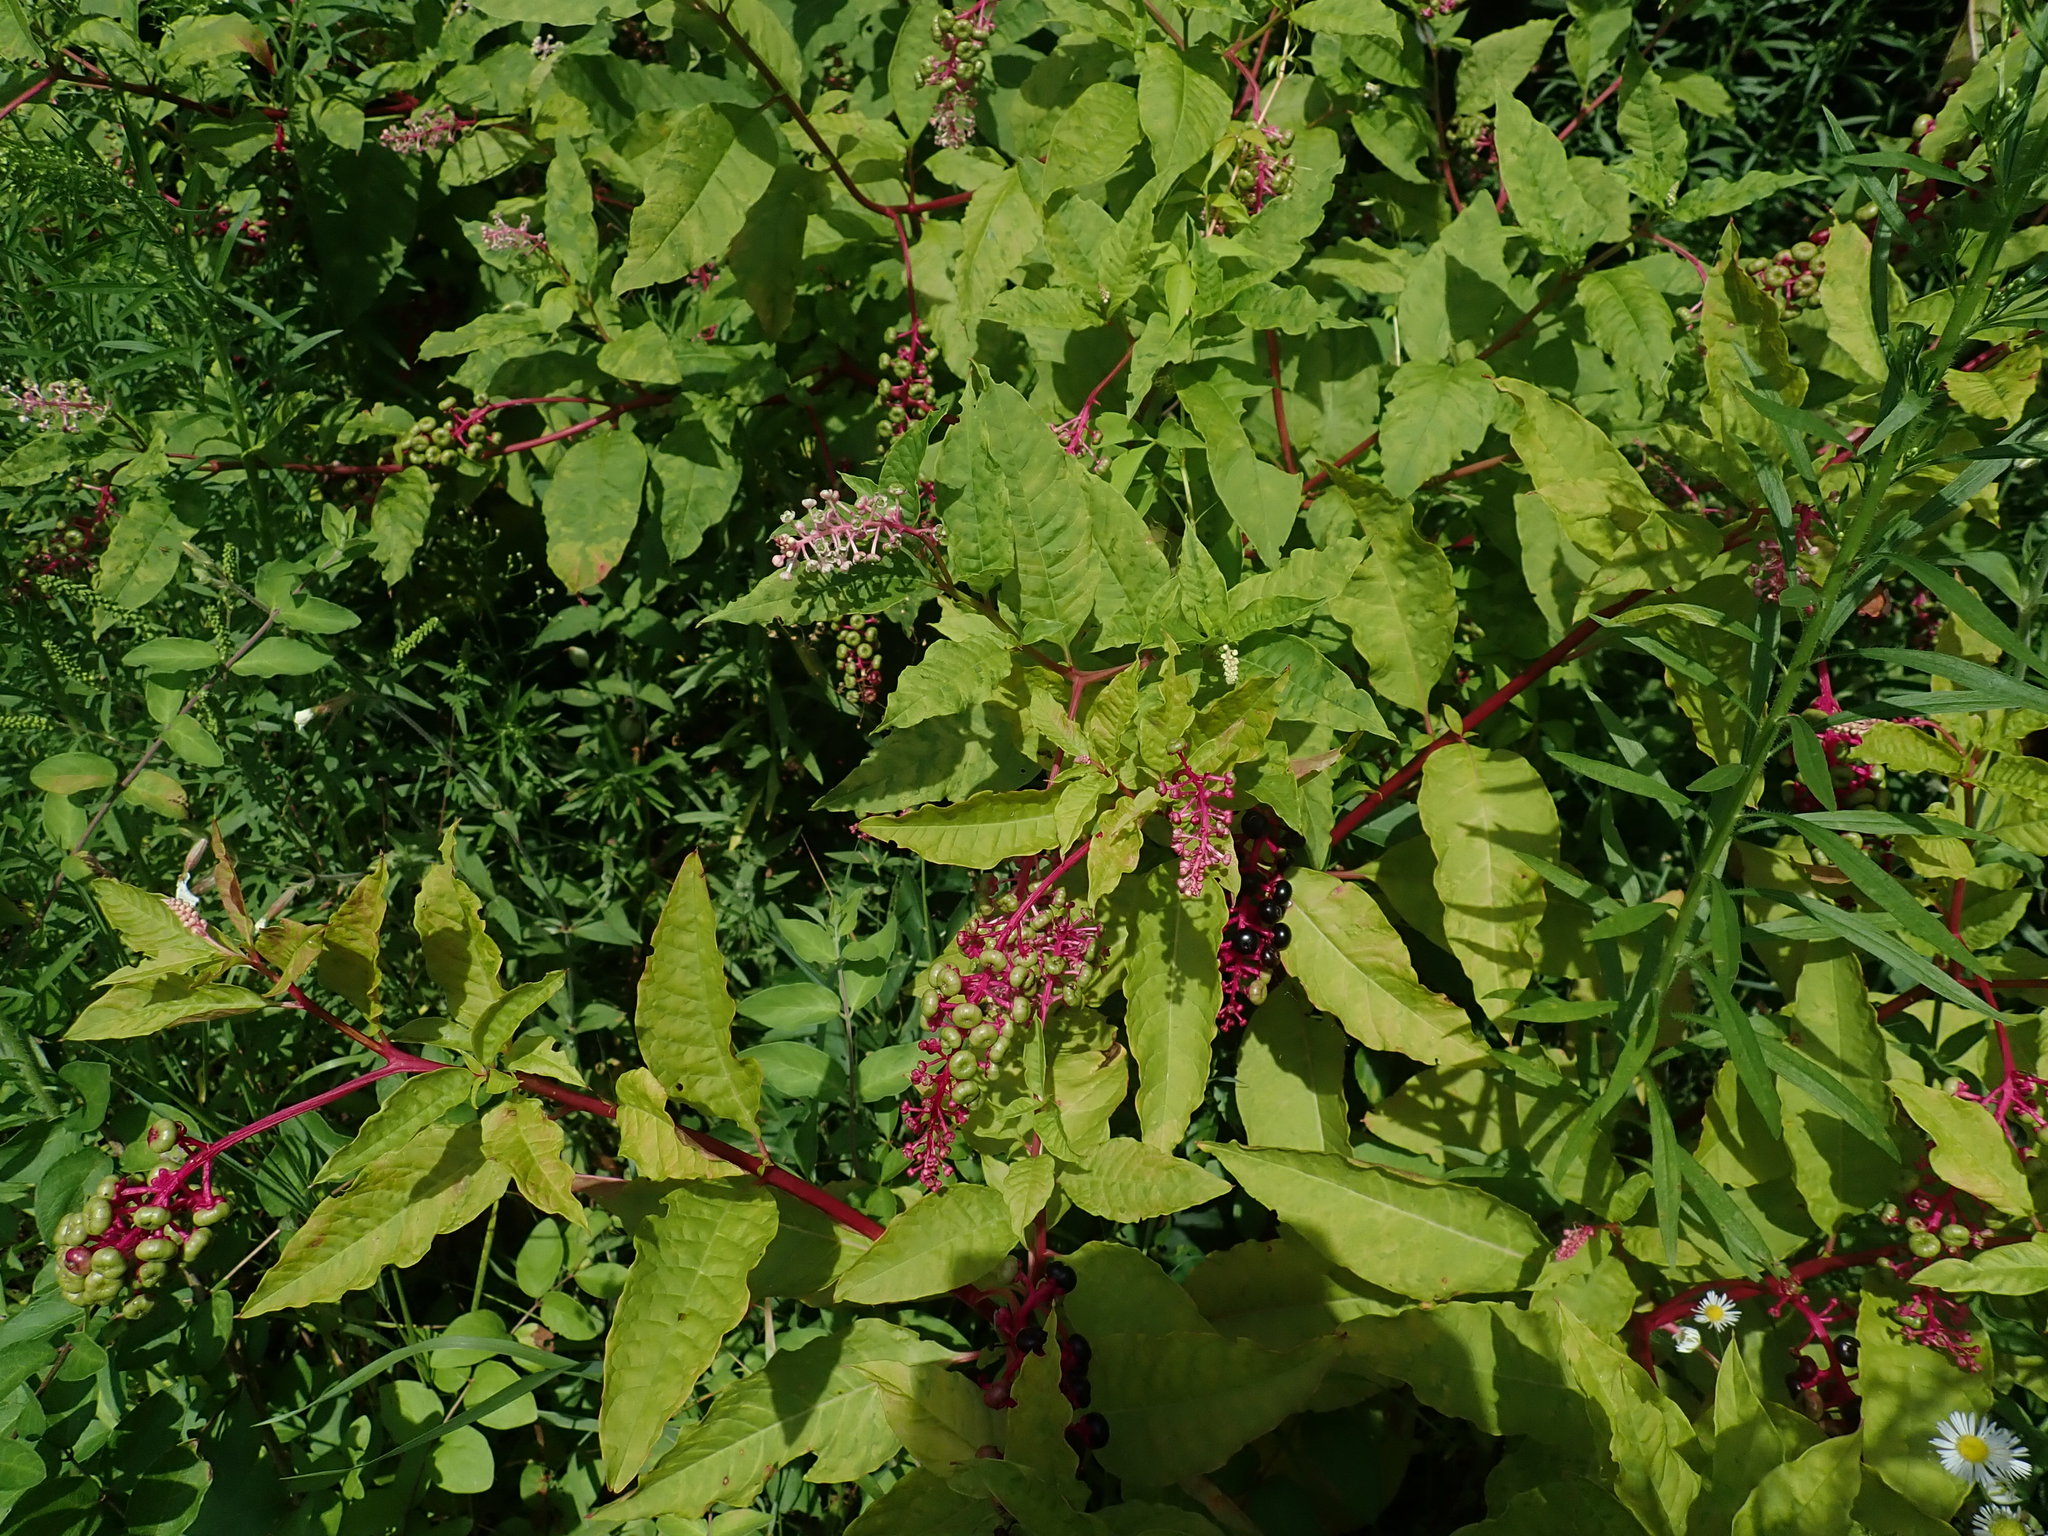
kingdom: Plantae
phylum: Tracheophyta
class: Magnoliopsida
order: Caryophyllales
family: Phytolaccaceae
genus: Phytolacca
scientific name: Phytolacca americana
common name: American pokeweed
